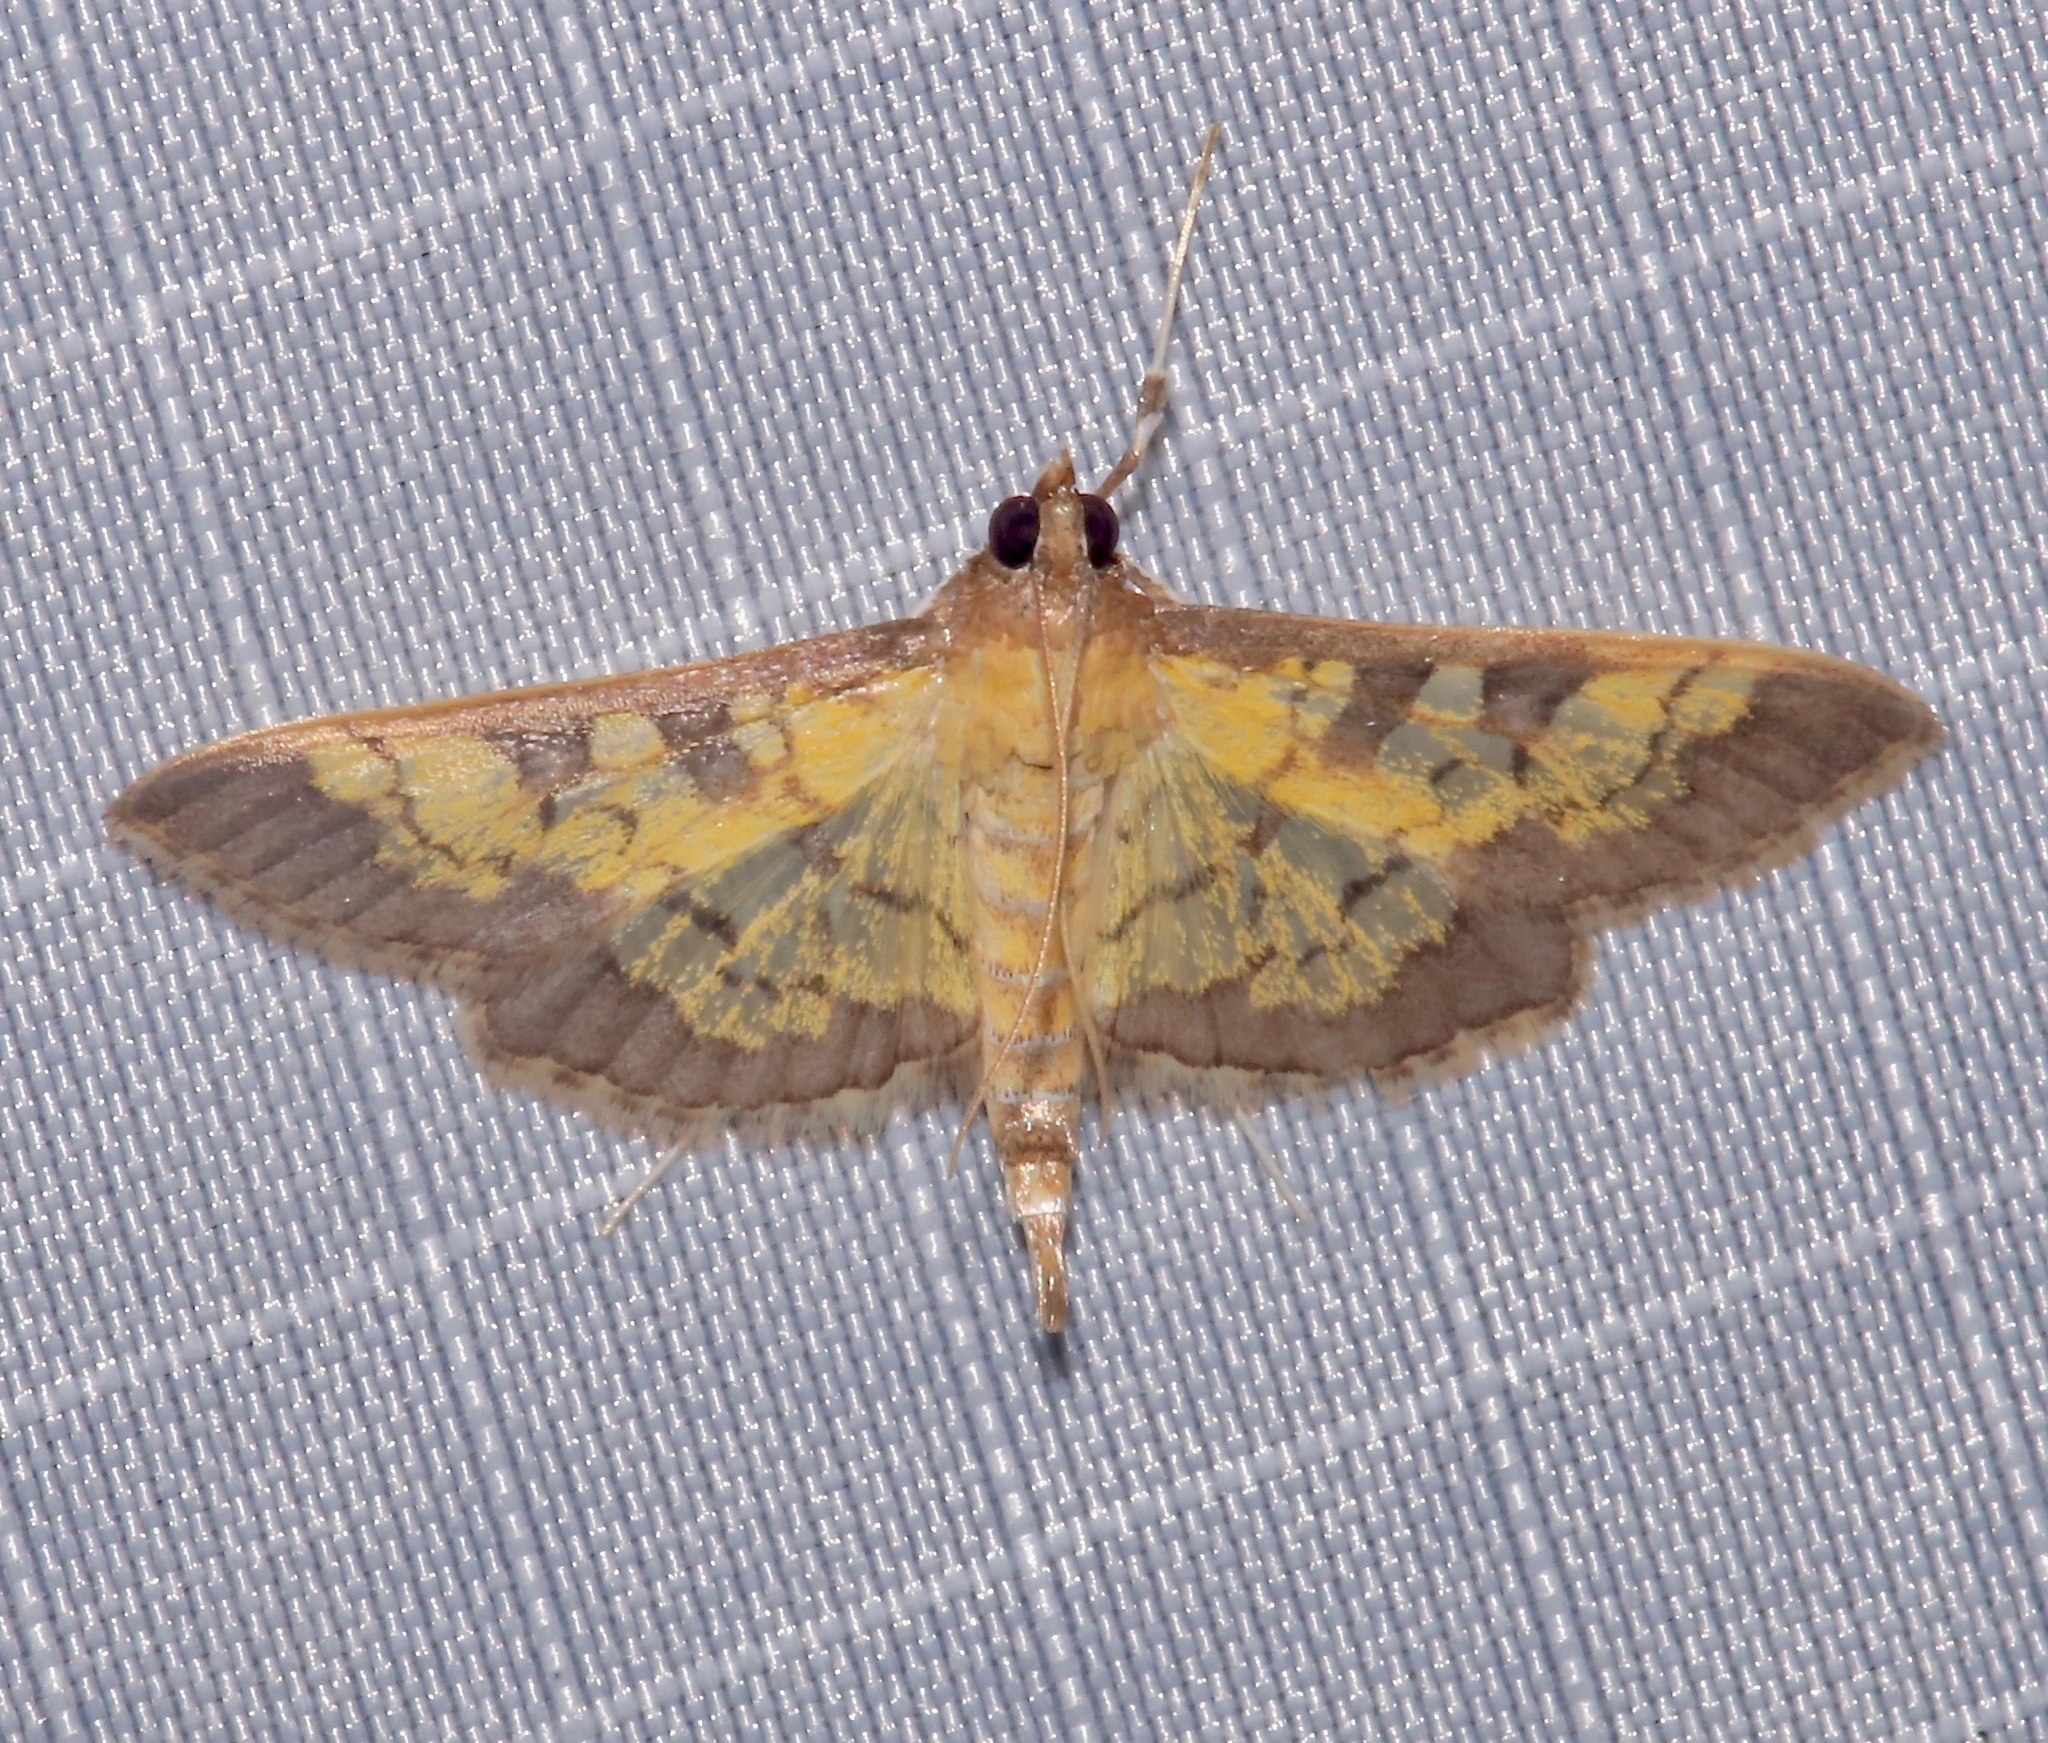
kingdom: Animalia
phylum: Arthropoda
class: Insecta
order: Lepidoptera
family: Crambidae
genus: Epipagis
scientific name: Epipagis adipaloides
